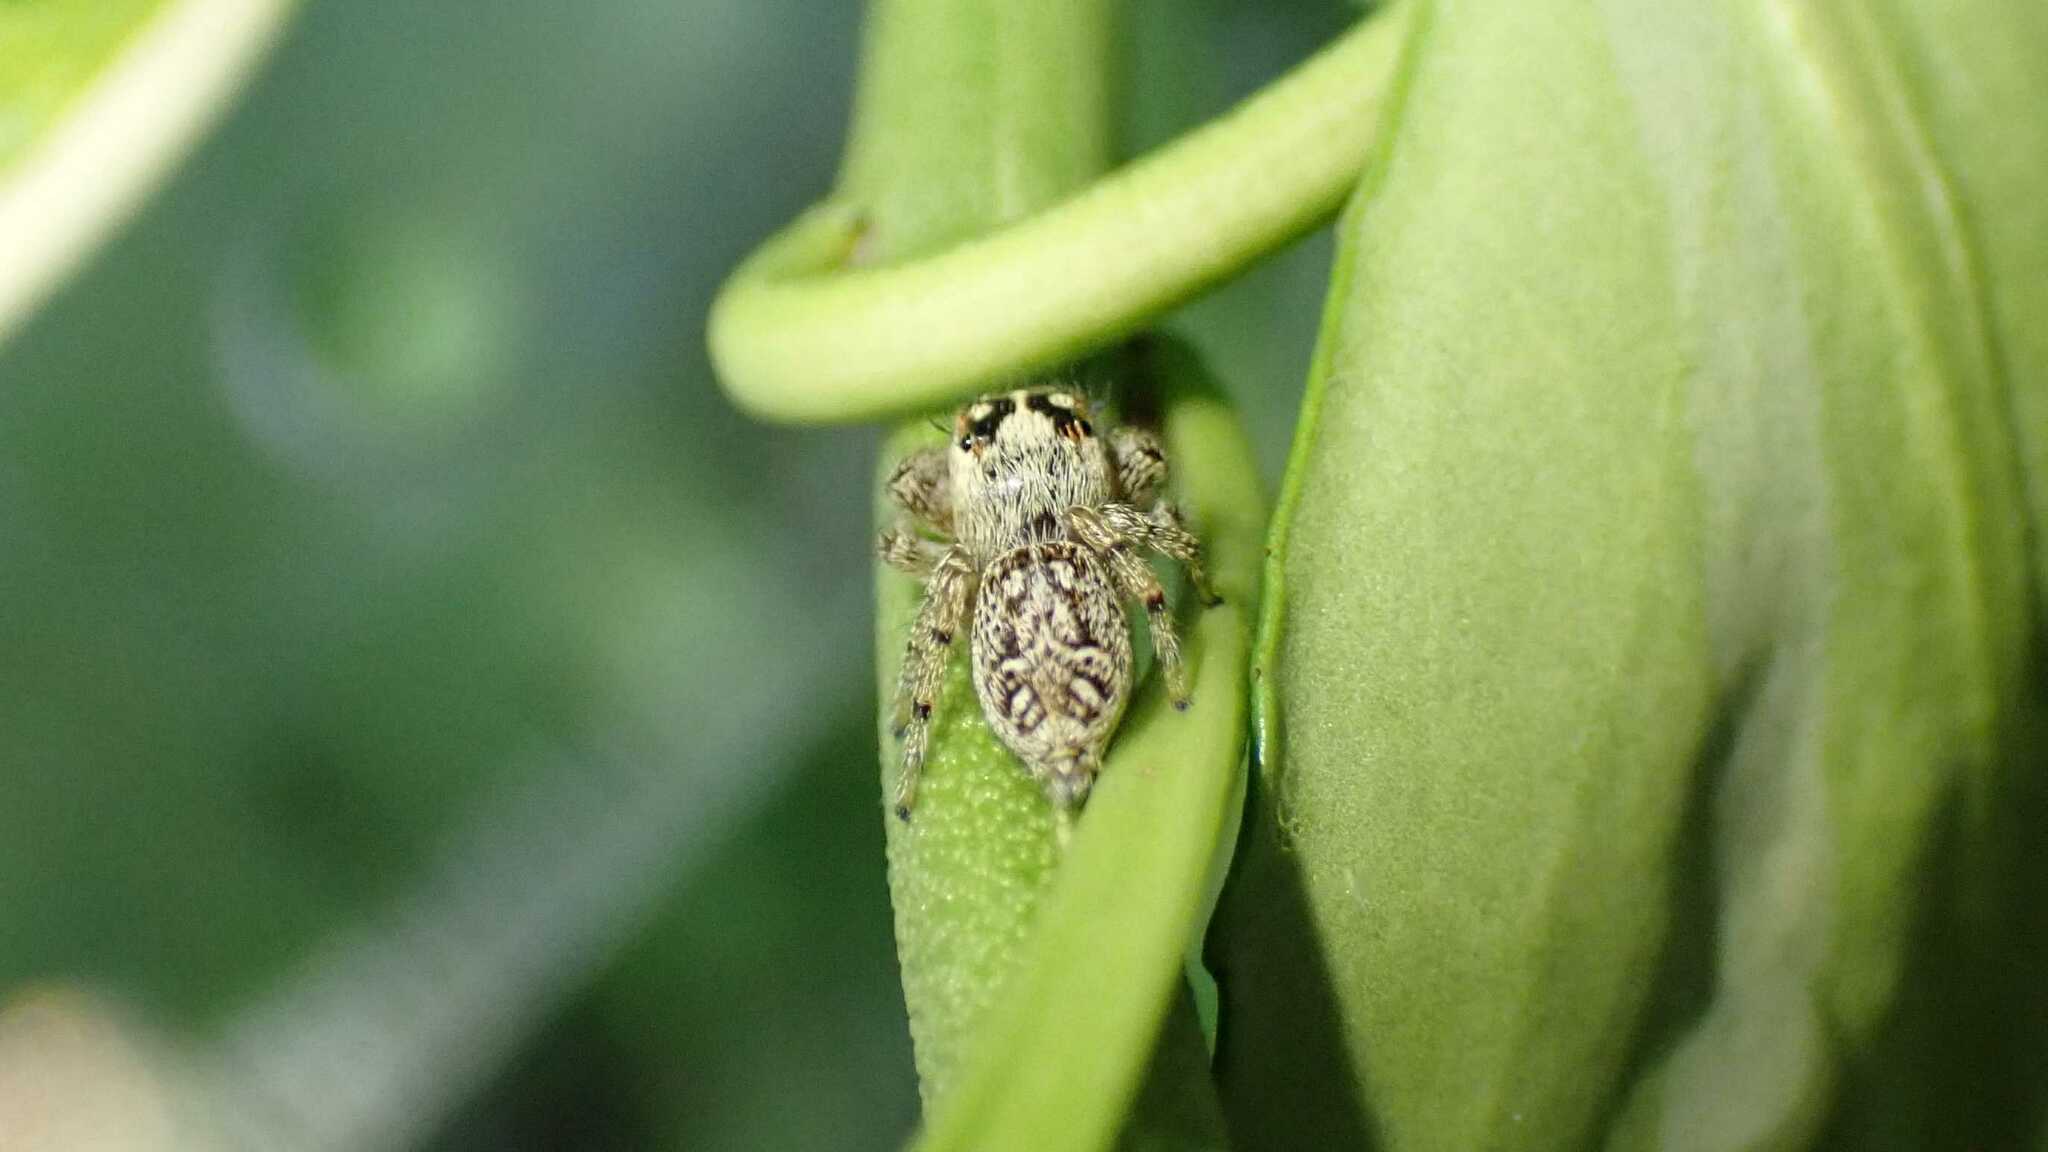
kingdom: Animalia
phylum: Arthropoda
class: Arachnida
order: Araneae
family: Salticidae
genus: Macaroeris
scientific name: Macaroeris nidicolens
